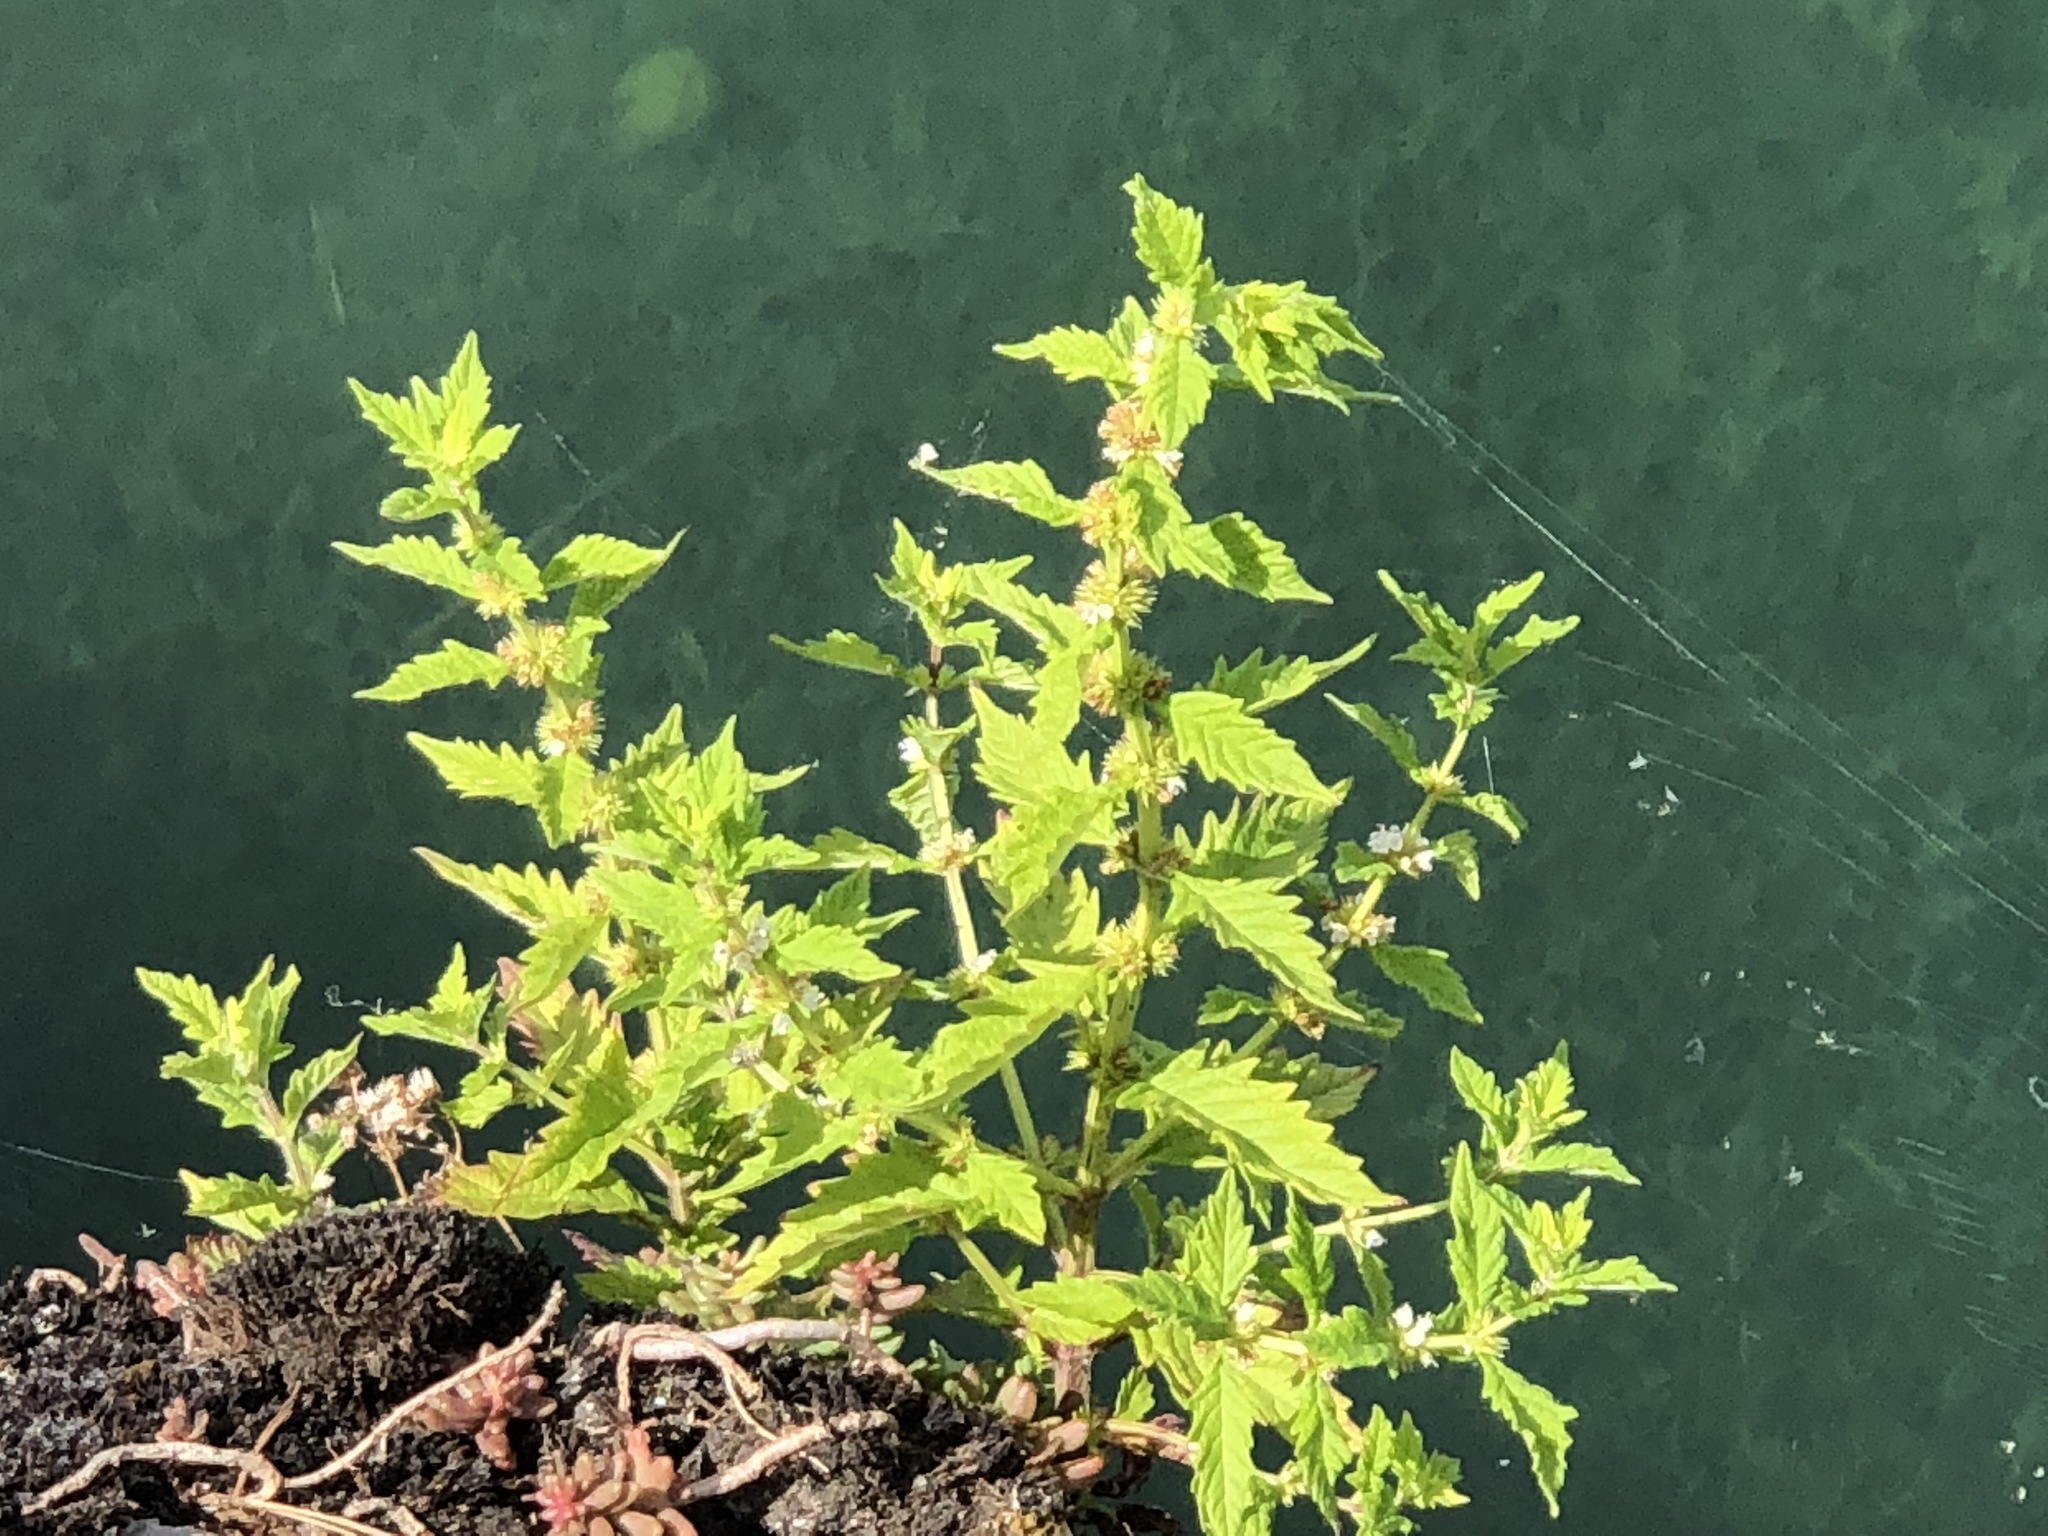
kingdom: Plantae
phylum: Tracheophyta
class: Magnoliopsida
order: Lamiales
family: Lamiaceae
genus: Lycopus
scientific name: Lycopus europaeus
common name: European bugleweed
